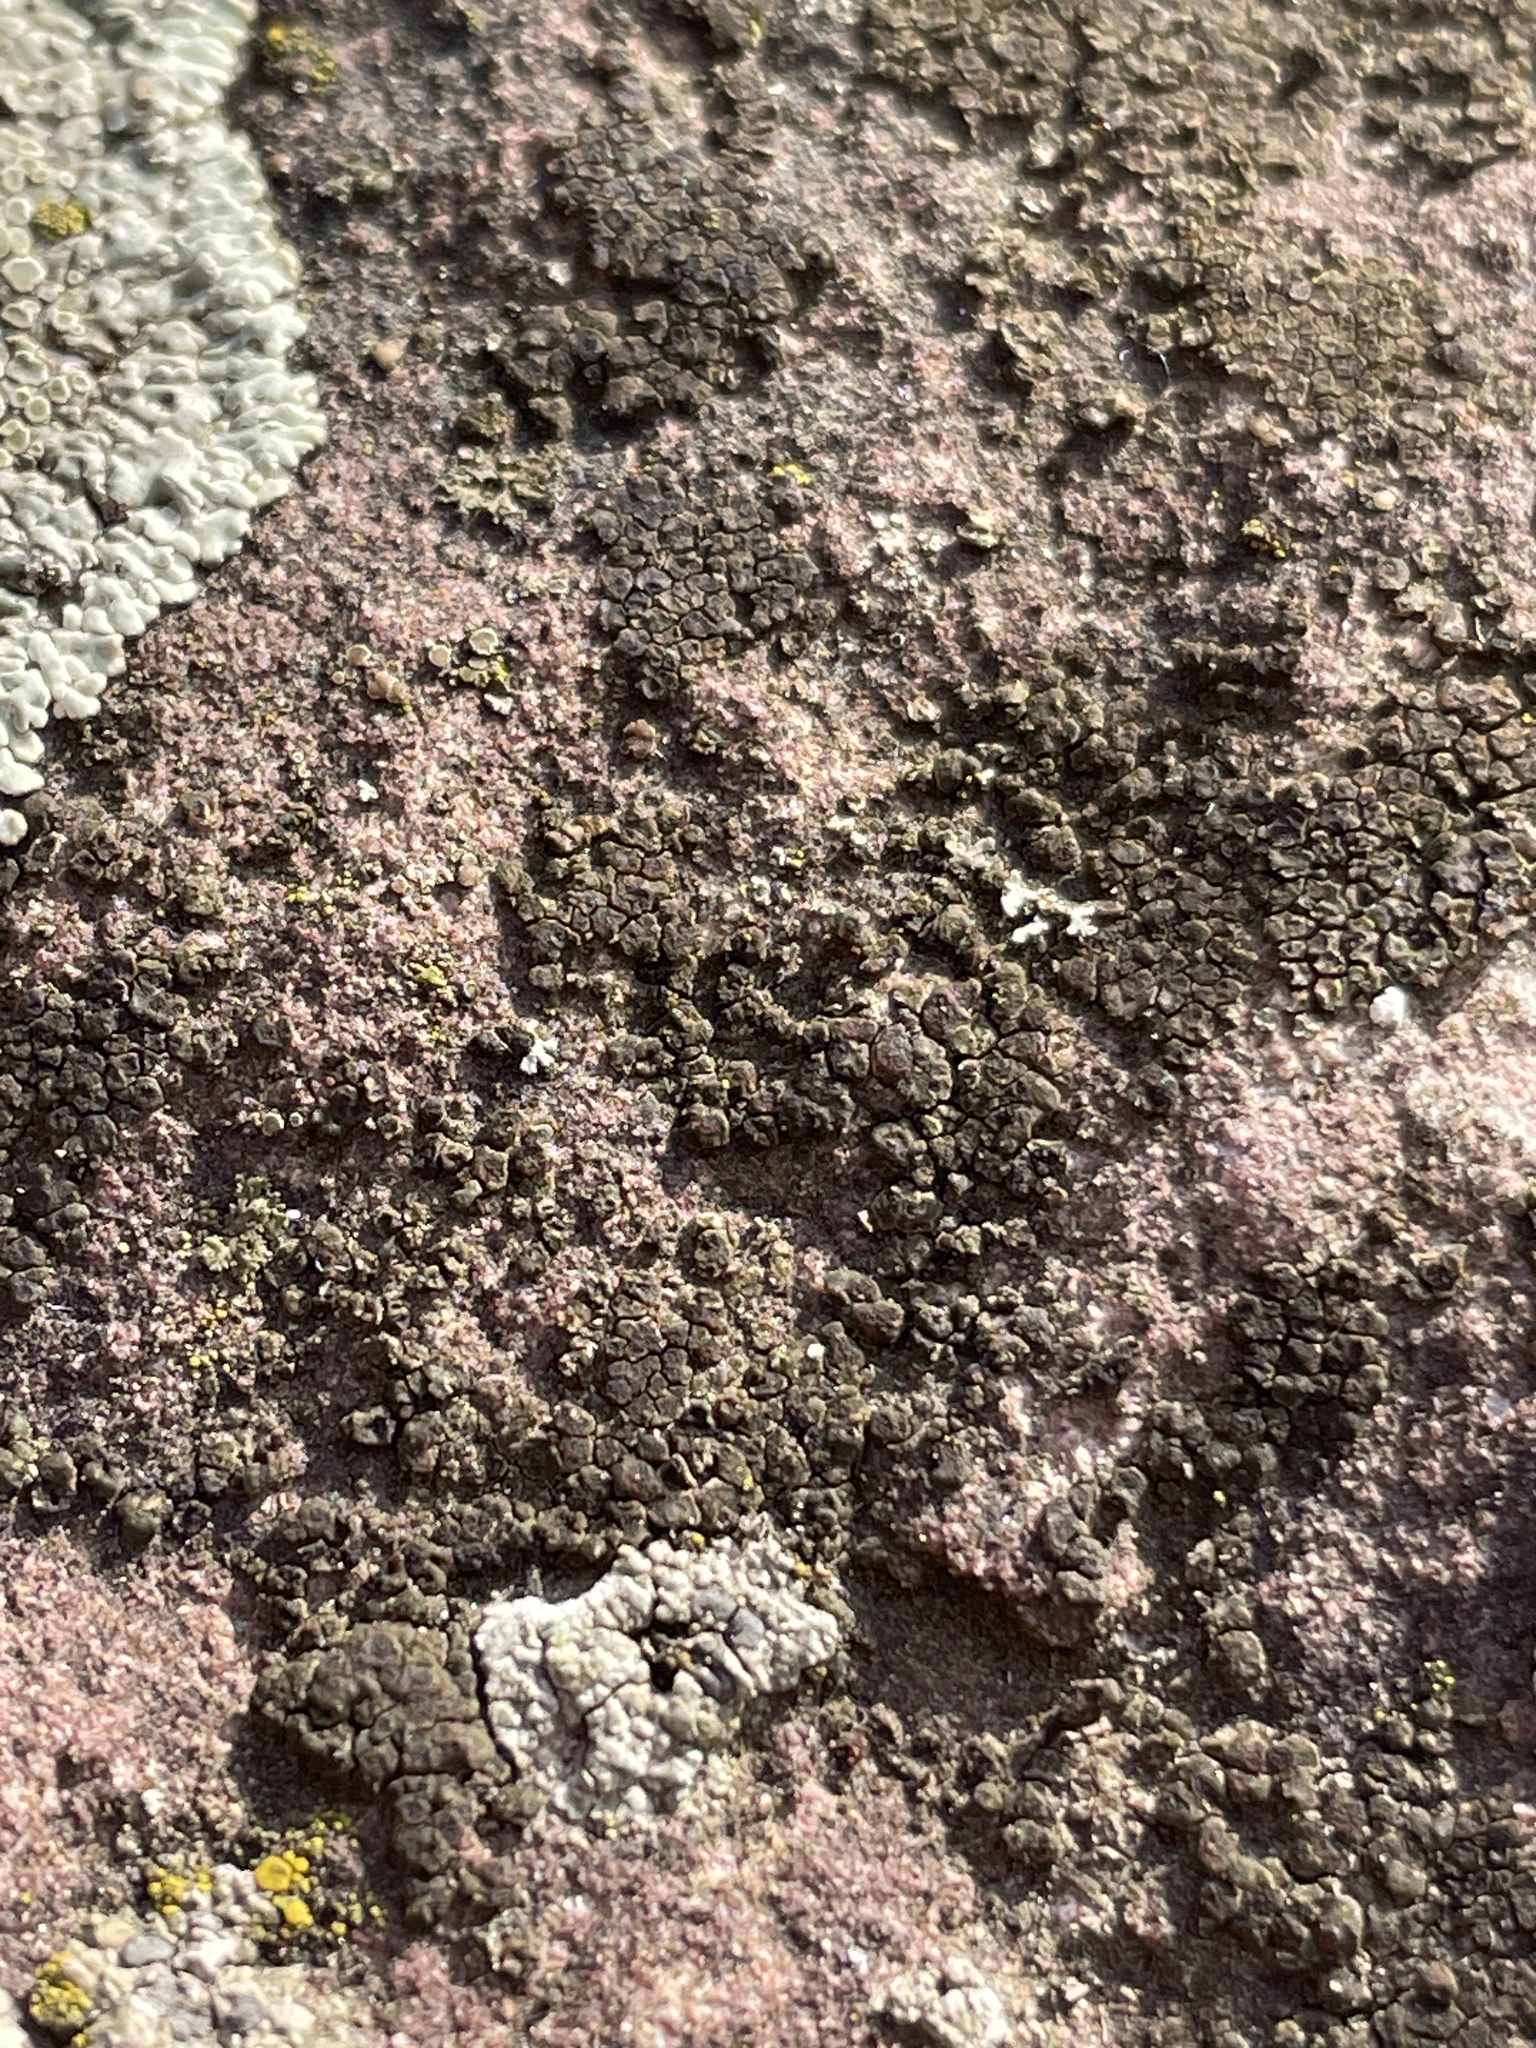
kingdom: Fungi
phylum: Ascomycota
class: Lecanoromycetes
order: Acarosporales
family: Acarosporaceae
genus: Acarospora
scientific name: Acarospora
